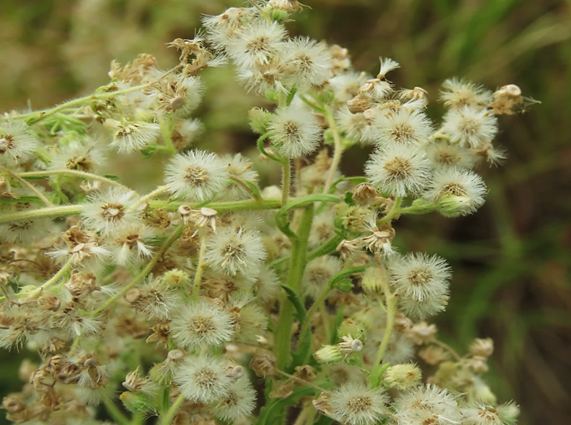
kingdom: Plantae
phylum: Tracheophyta
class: Magnoliopsida
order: Asterales
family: Asteraceae
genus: Erigeron
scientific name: Erigeron canadensis
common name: Canadian fleabane
